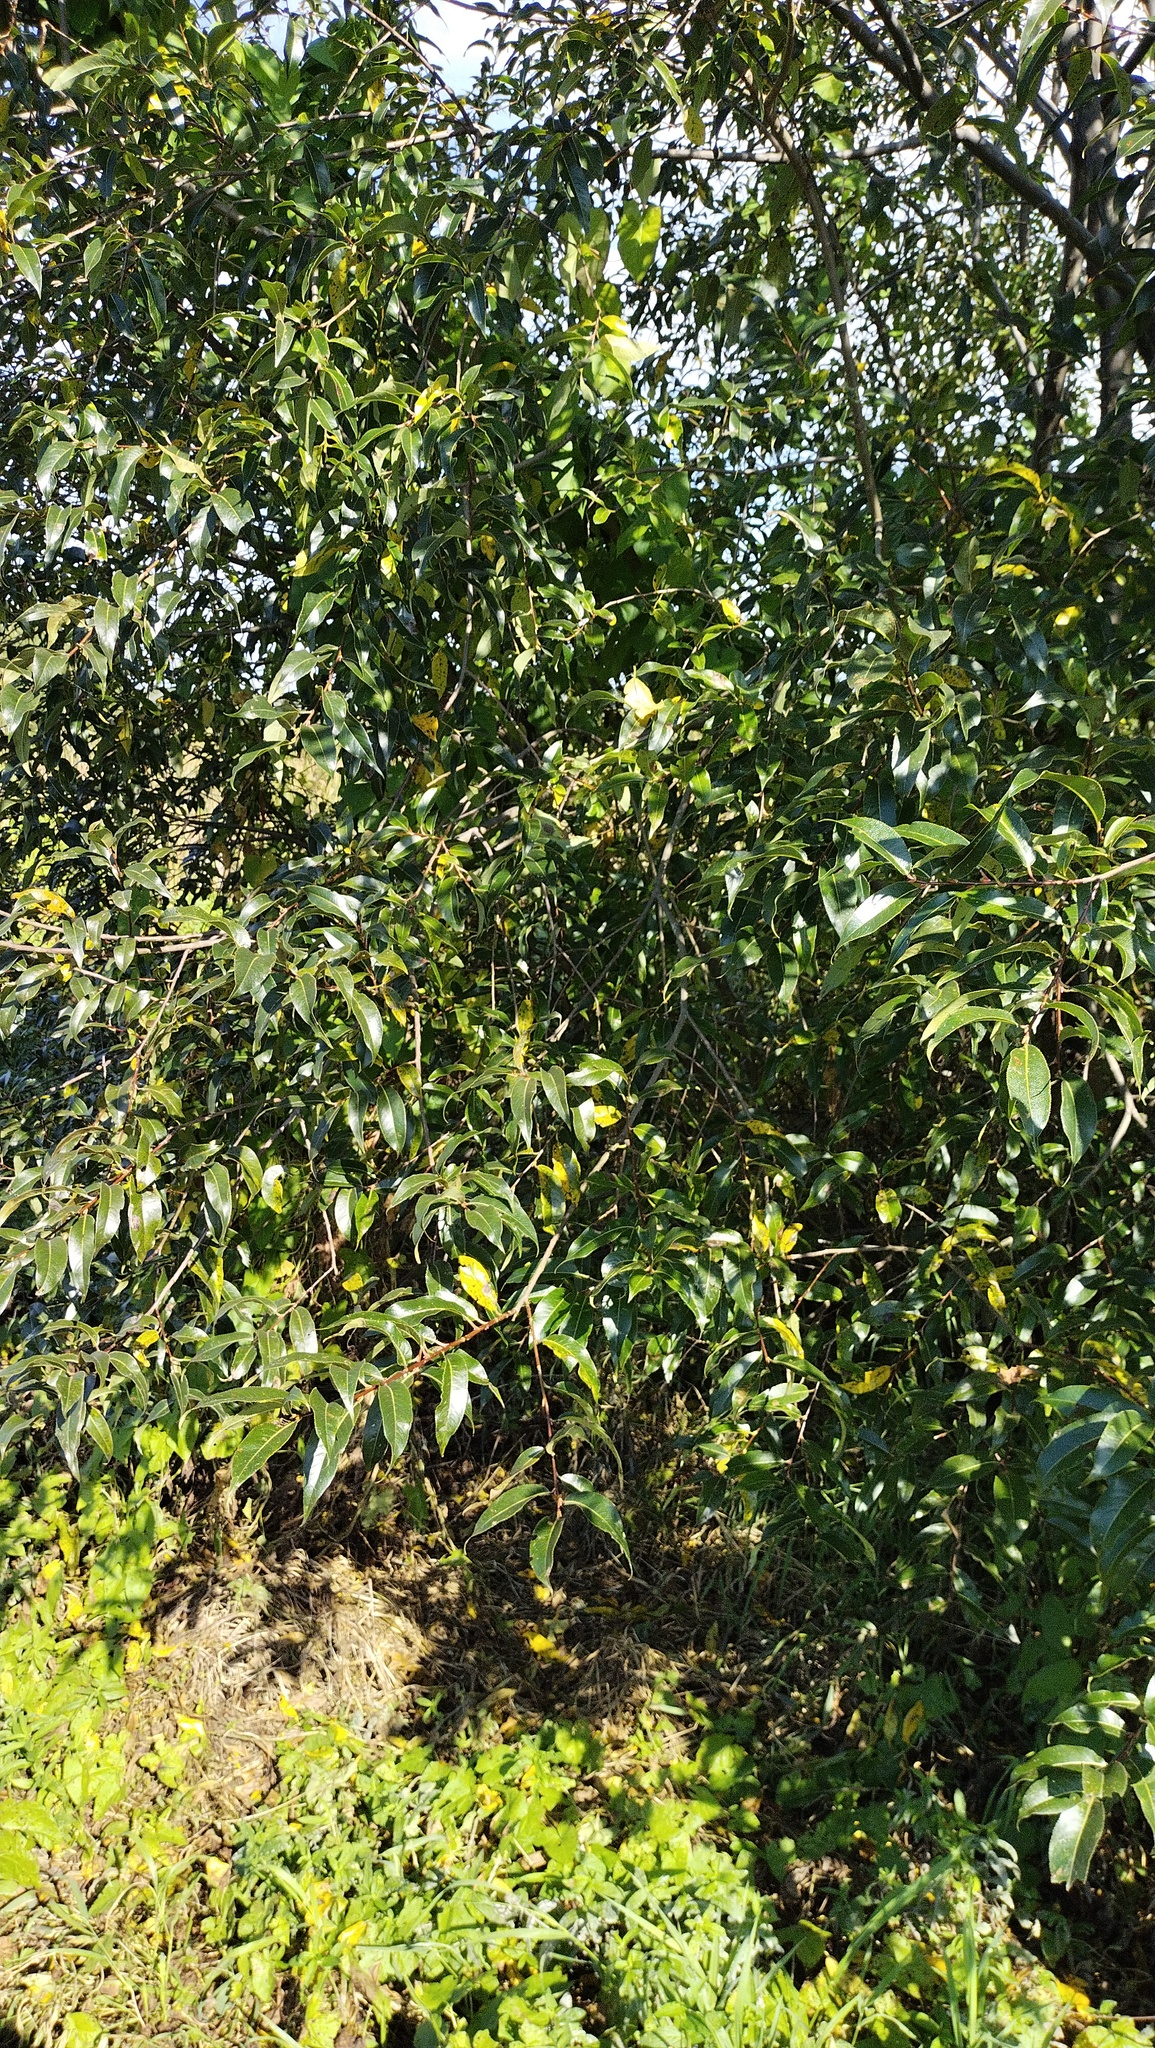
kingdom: Plantae
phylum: Tracheophyta
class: Magnoliopsida
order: Malpighiales
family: Salicaceae
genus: Salix
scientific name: Salix pentandra
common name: Bay willow
